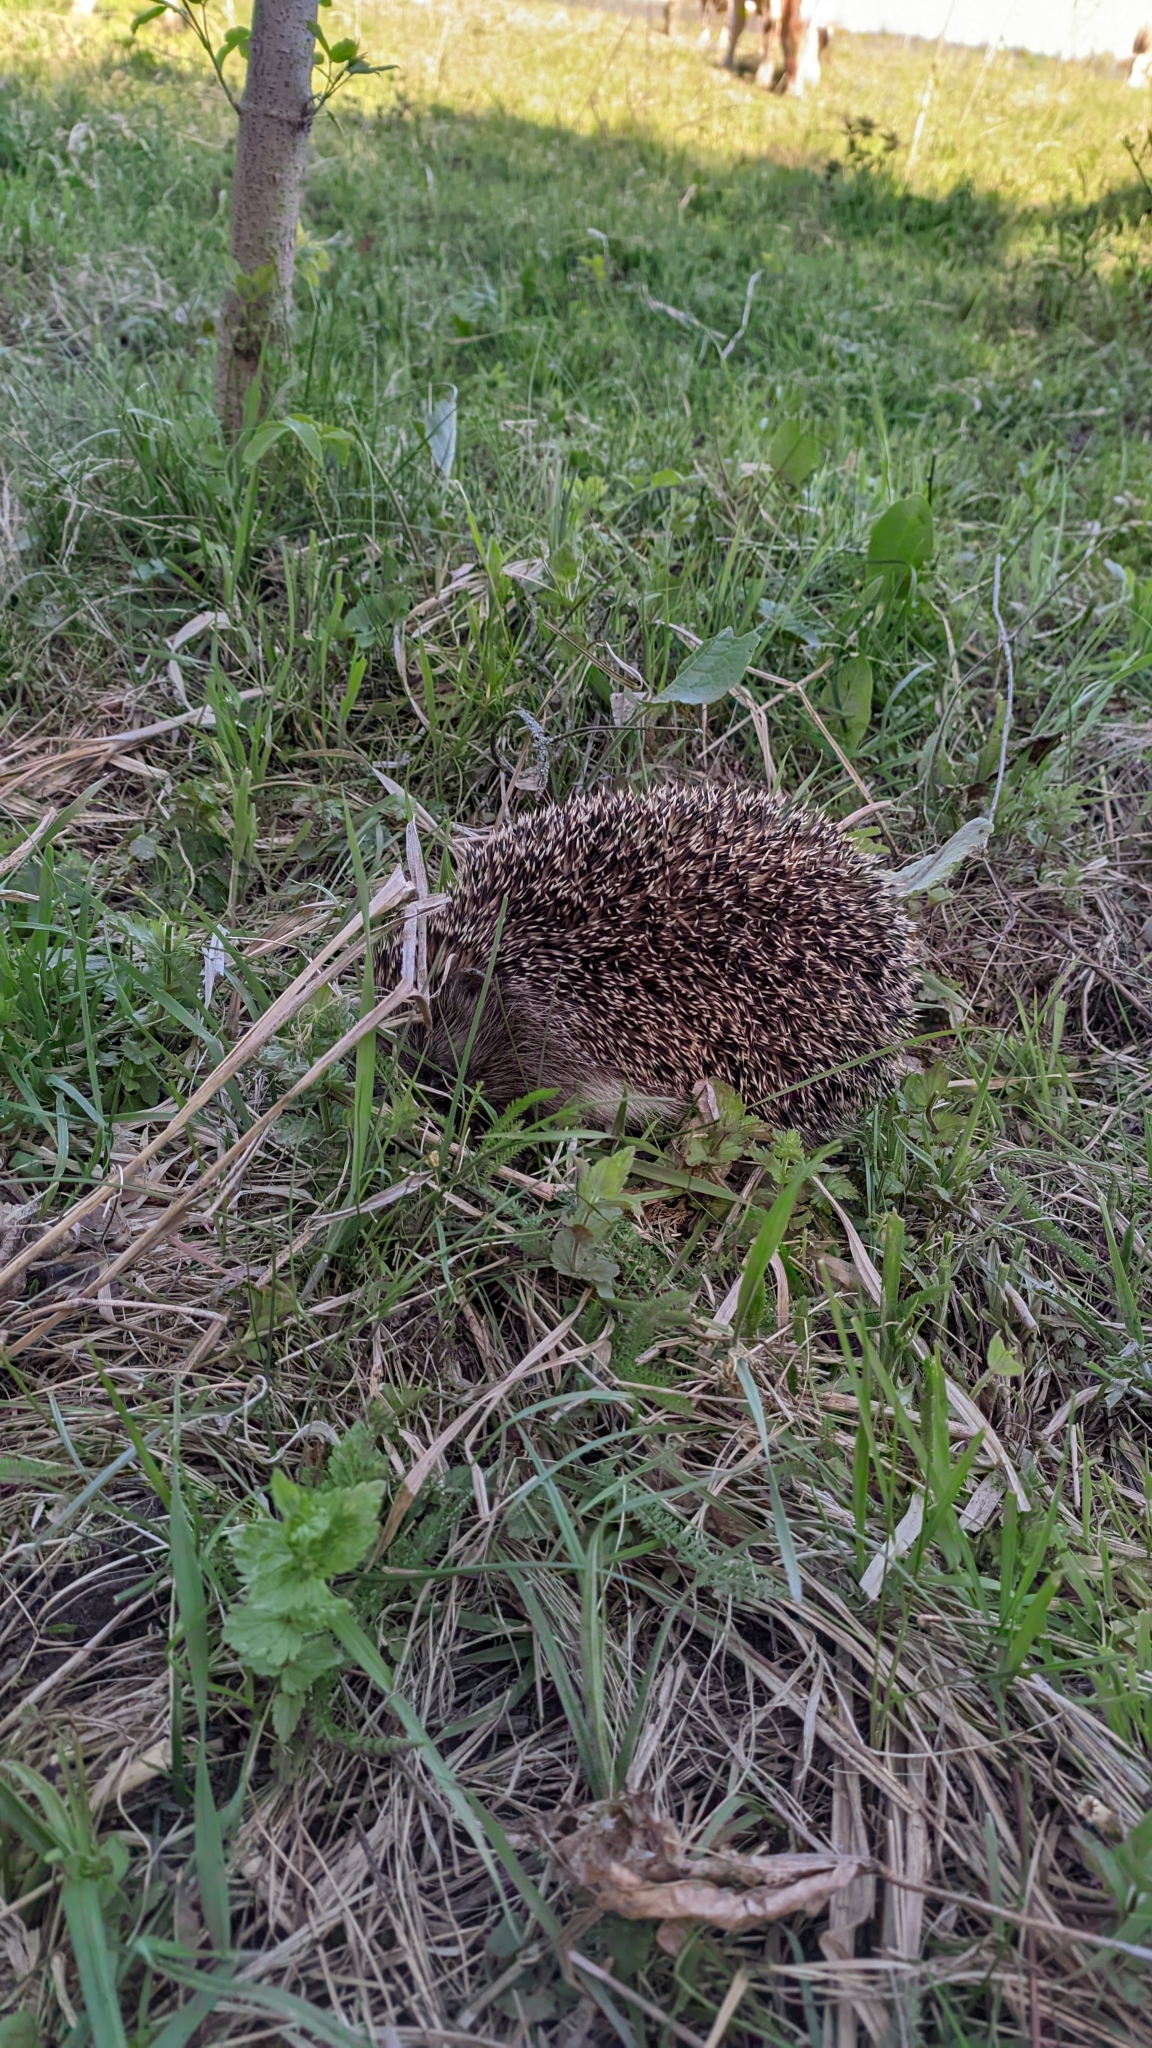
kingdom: Animalia
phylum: Chordata
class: Mammalia
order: Erinaceomorpha
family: Erinaceidae
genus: Erinaceus
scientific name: Erinaceus roumanicus
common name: Northern white-breasted hedgehog
